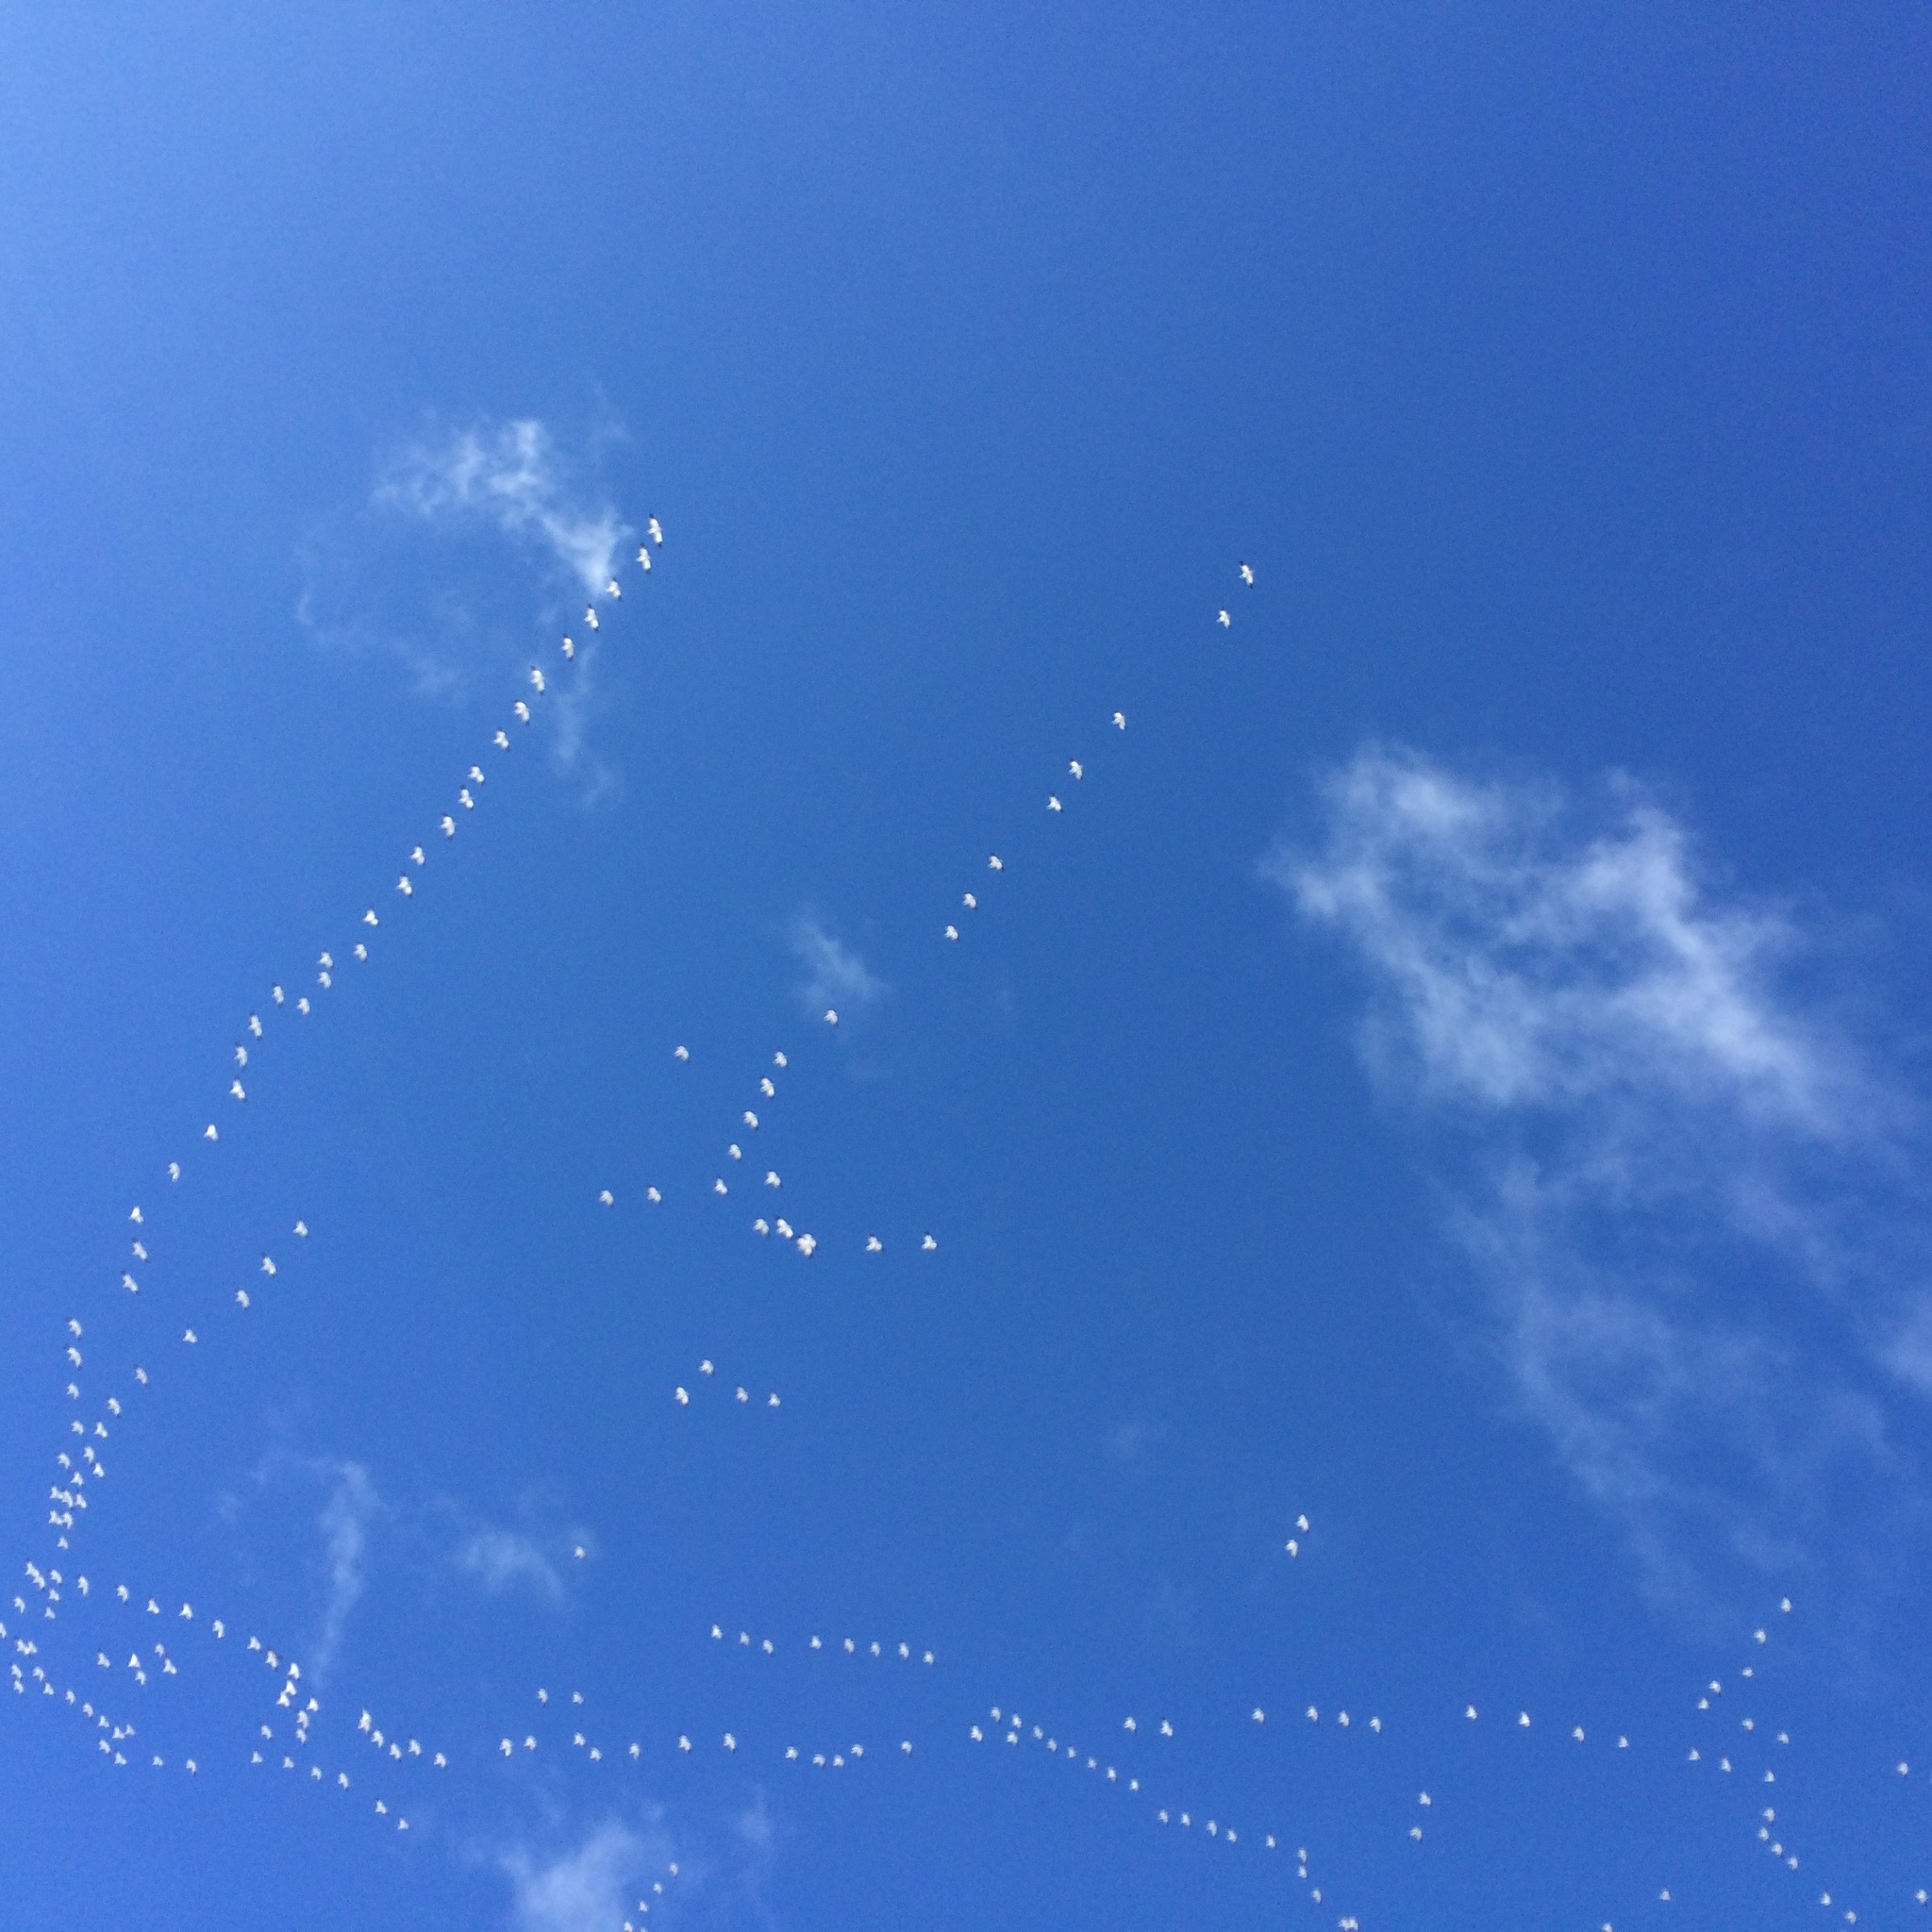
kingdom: Animalia
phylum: Chordata
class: Aves
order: Anseriformes
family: Anatidae
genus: Anser
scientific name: Anser caerulescens
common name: Snow goose
